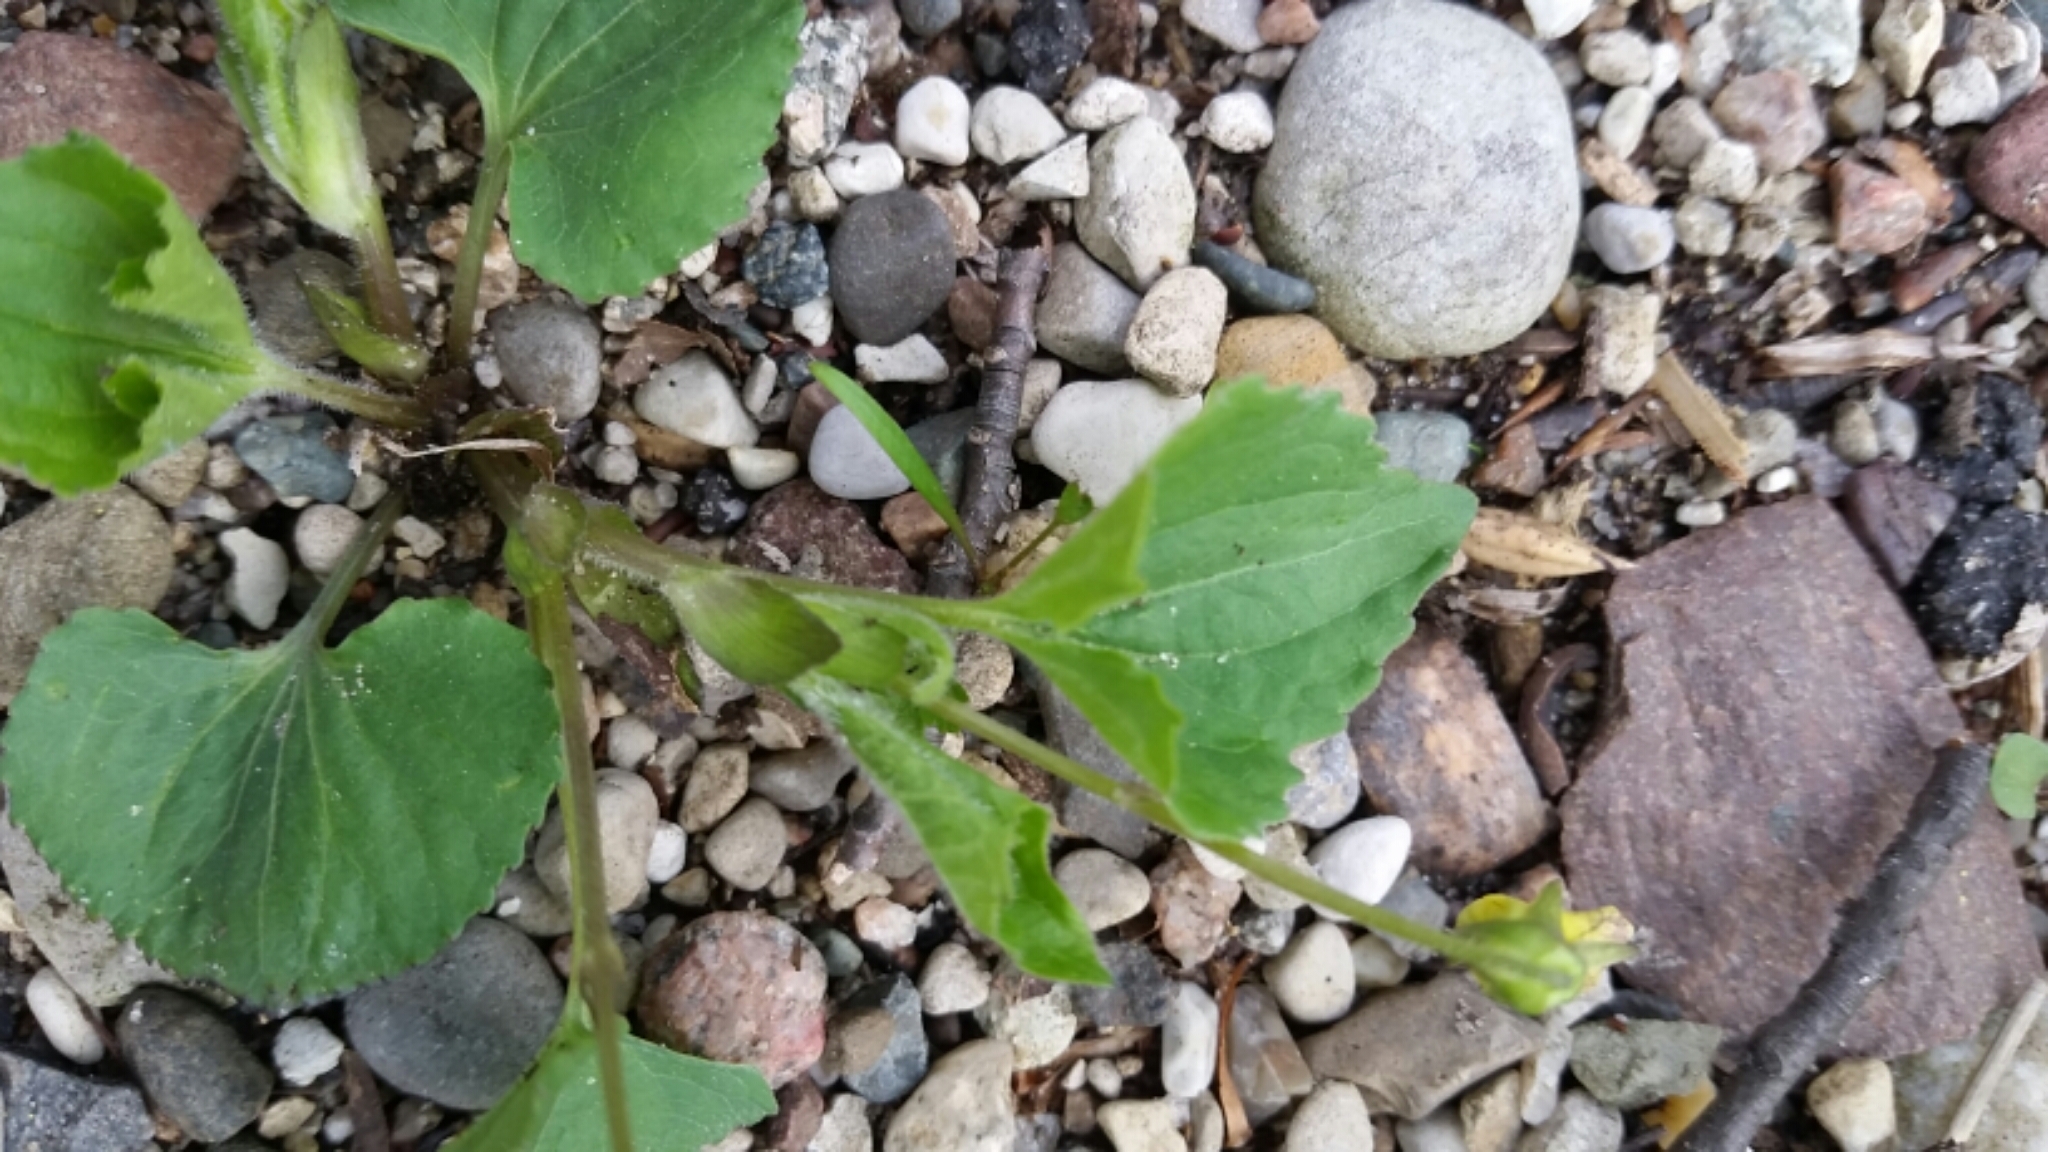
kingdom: Plantae
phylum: Tracheophyta
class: Magnoliopsida
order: Malpighiales
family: Violaceae
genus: Viola
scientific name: Viola eriocarpa
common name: Smooth yellow violet
